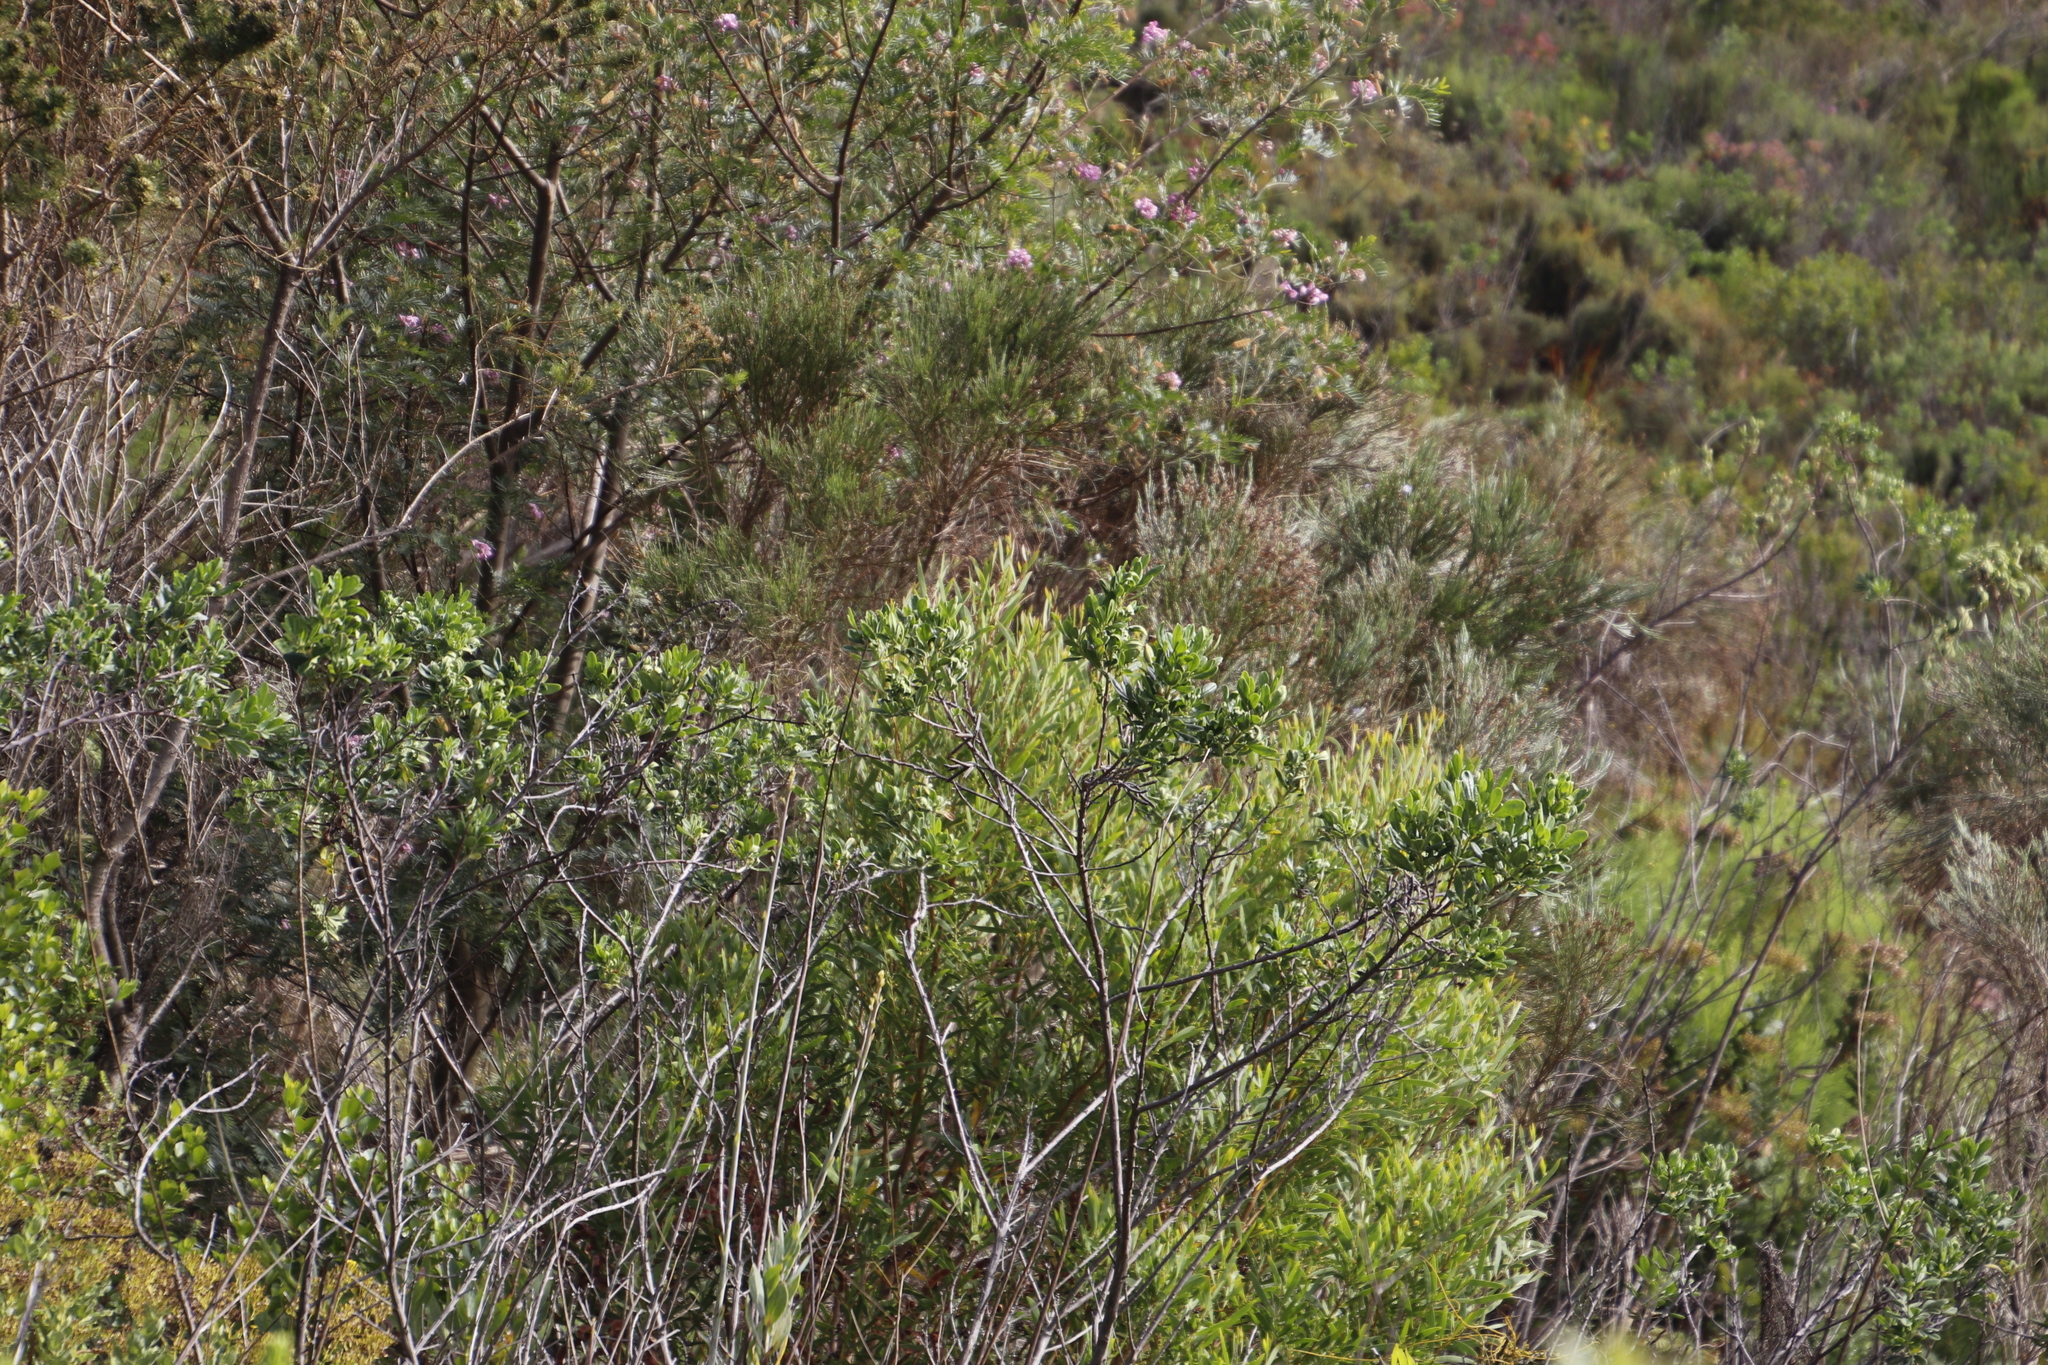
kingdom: Plantae
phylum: Tracheophyta
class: Magnoliopsida
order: Fabales
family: Fabaceae
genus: Acacia
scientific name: Acacia cyclops
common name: Coastal wattle
